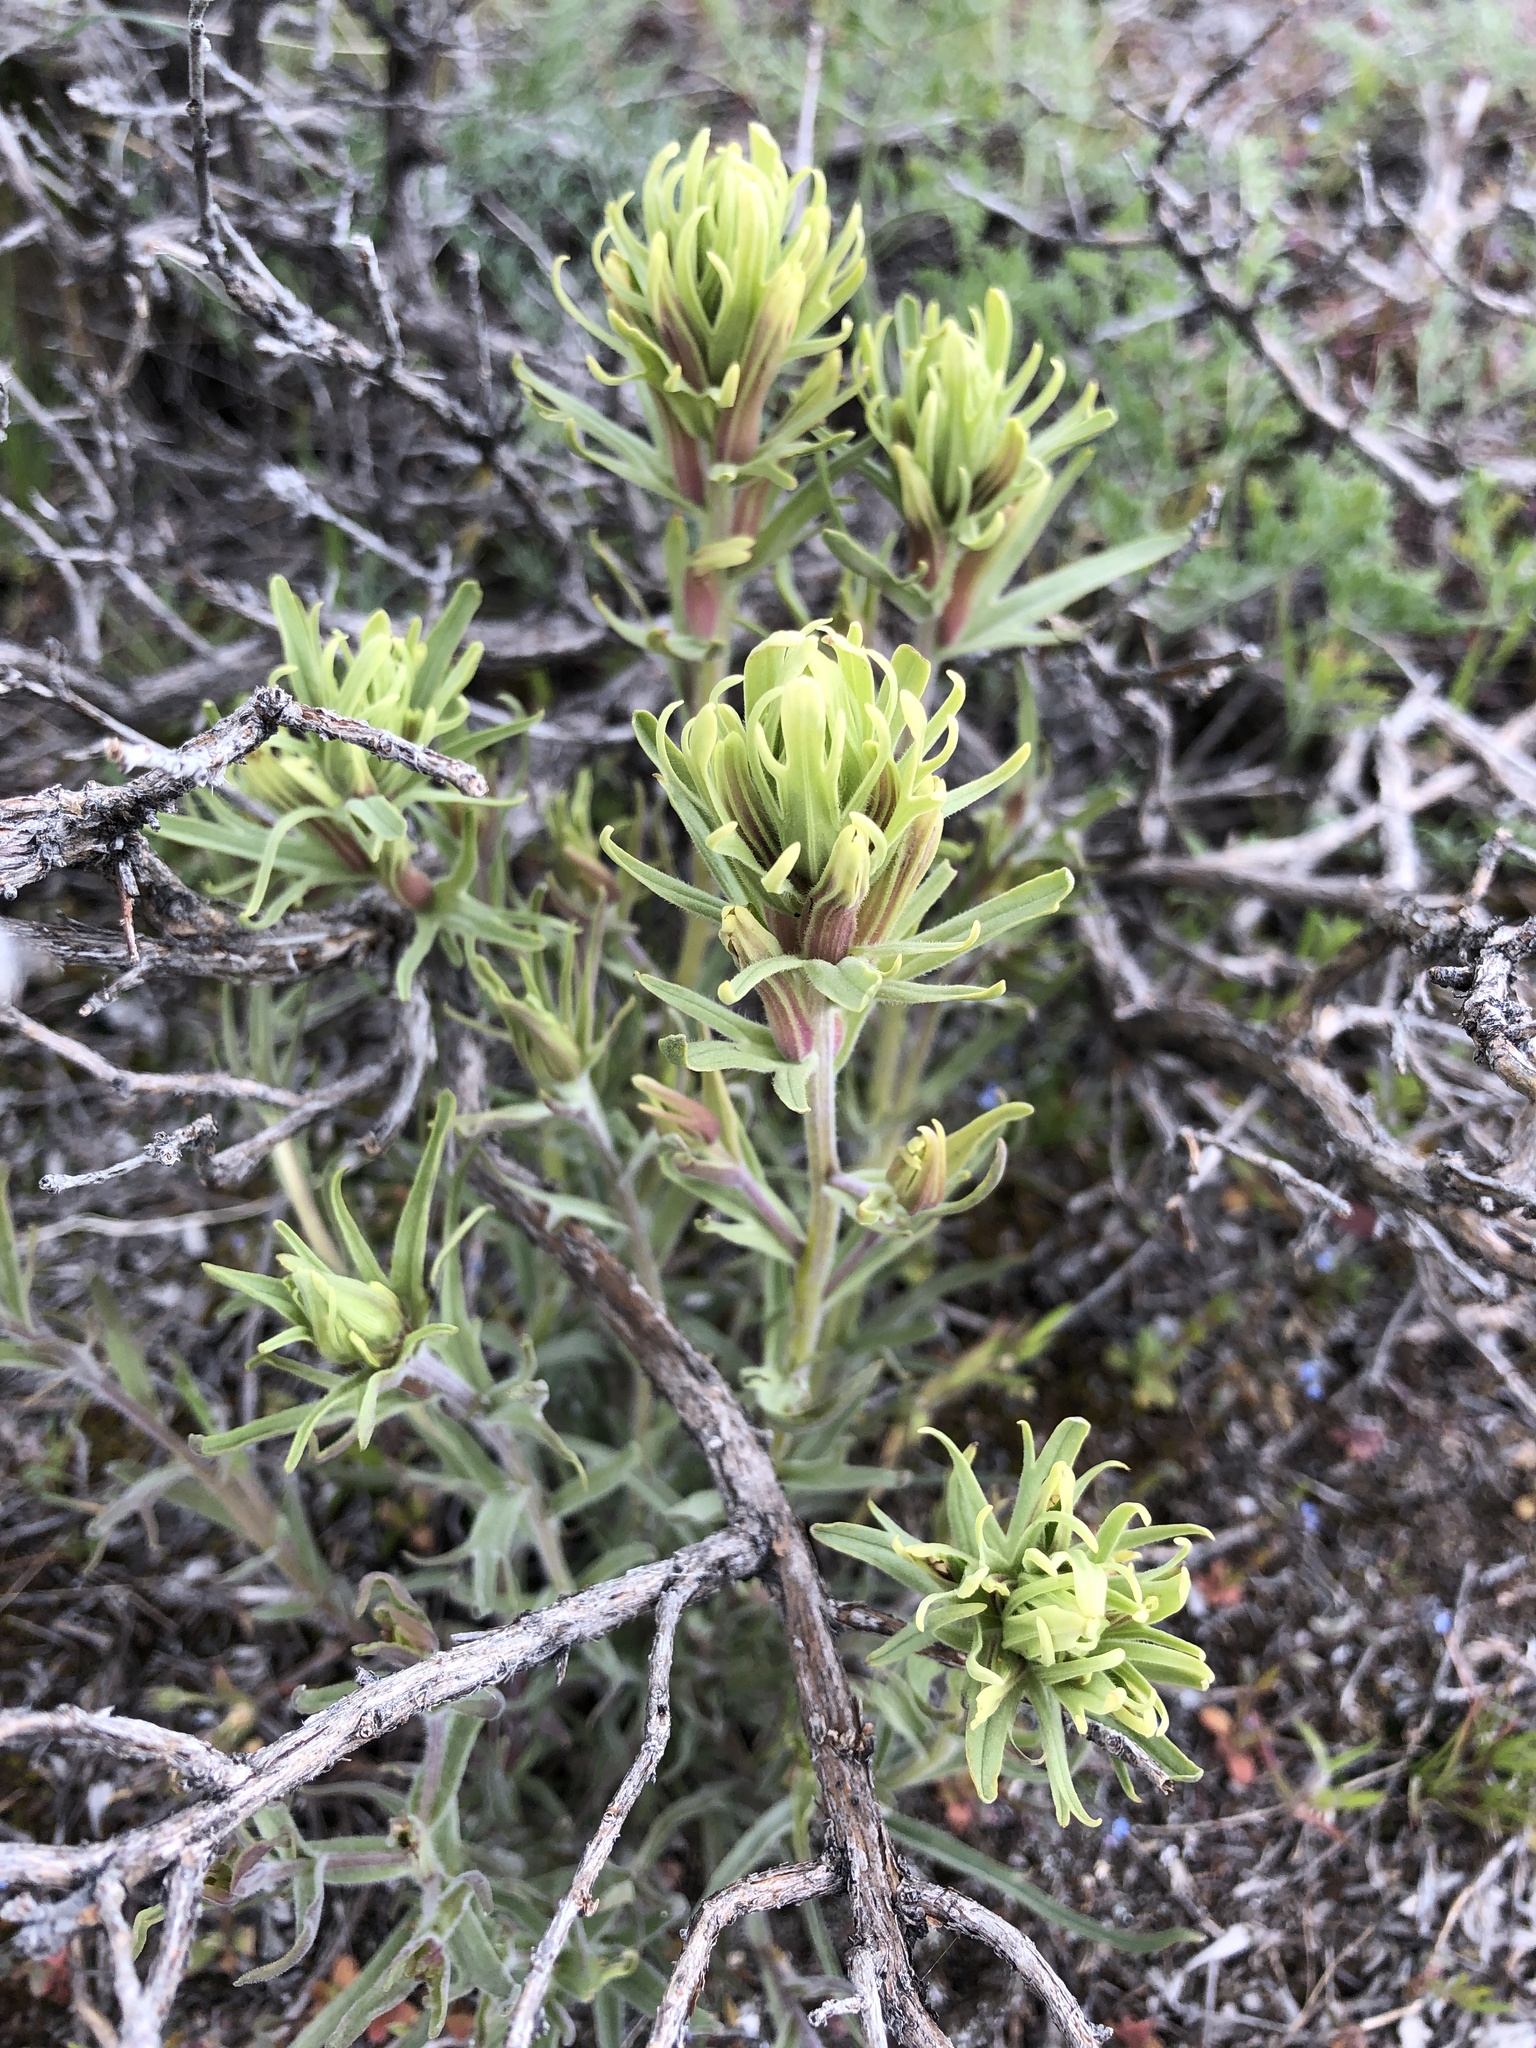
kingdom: Plantae
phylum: Tracheophyta
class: Magnoliopsida
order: Lamiales
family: Orobanchaceae
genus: Castilleja
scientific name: Castilleja thompsonii
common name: Thompson's paintbrush
